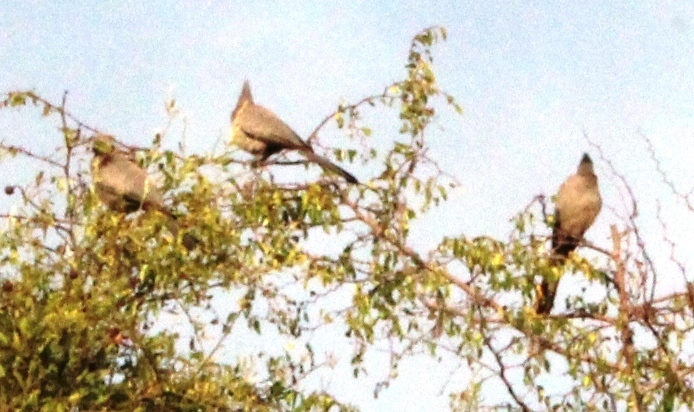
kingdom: Animalia
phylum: Chordata
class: Aves
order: Musophagiformes
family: Musophagidae
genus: Corythaixoides
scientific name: Corythaixoides concolor
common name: Grey go-away-bird
